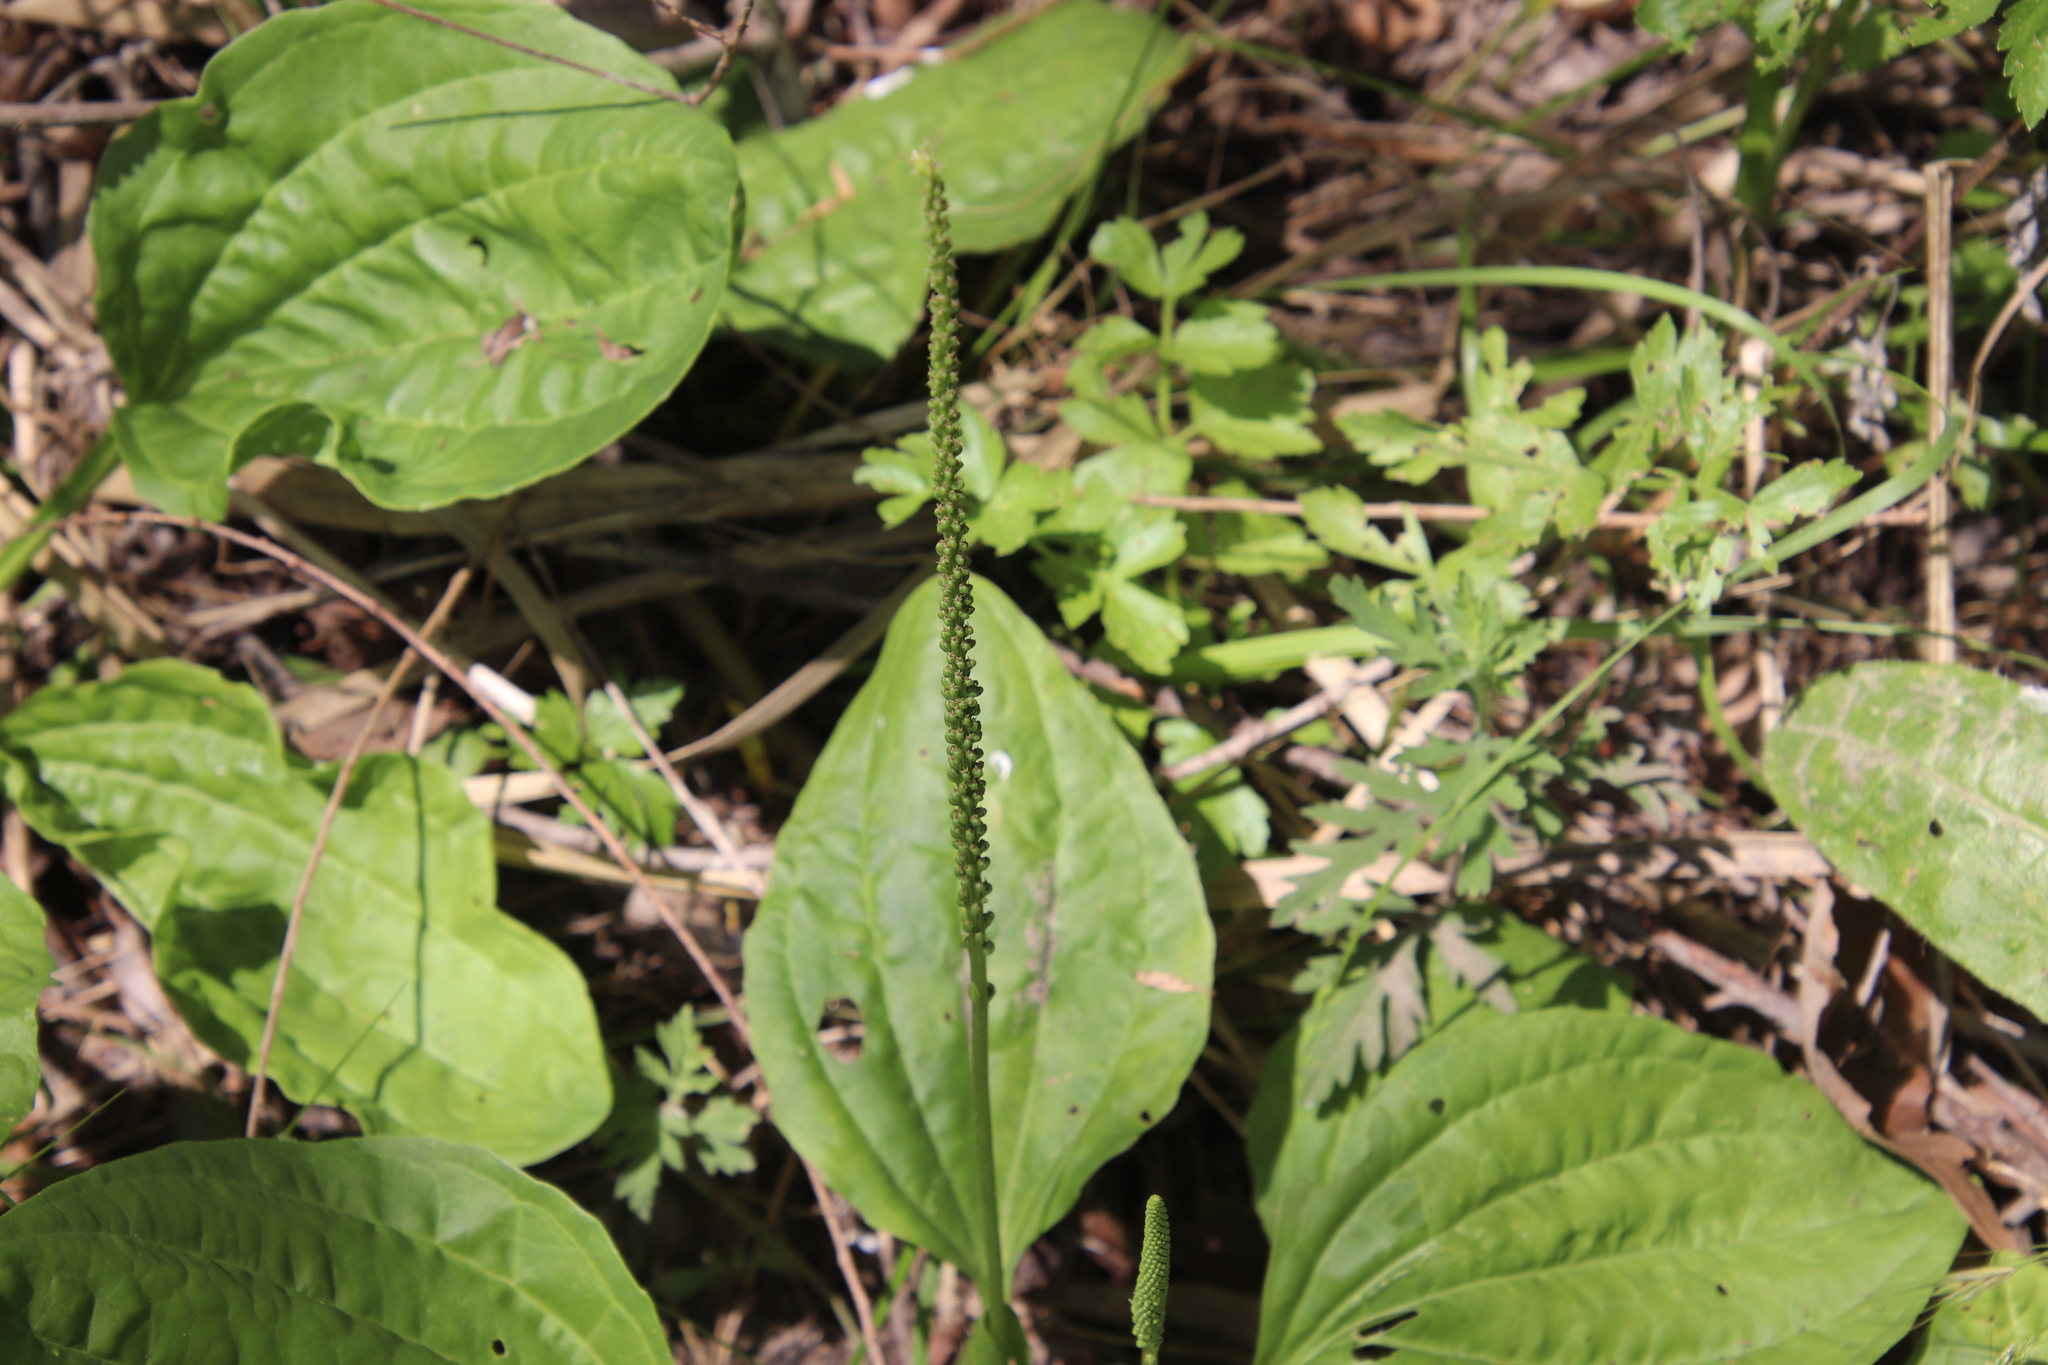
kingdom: Plantae
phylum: Tracheophyta
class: Magnoliopsida
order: Lamiales
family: Plantaginaceae
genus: Plantago
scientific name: Plantago major
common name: Common plantain
